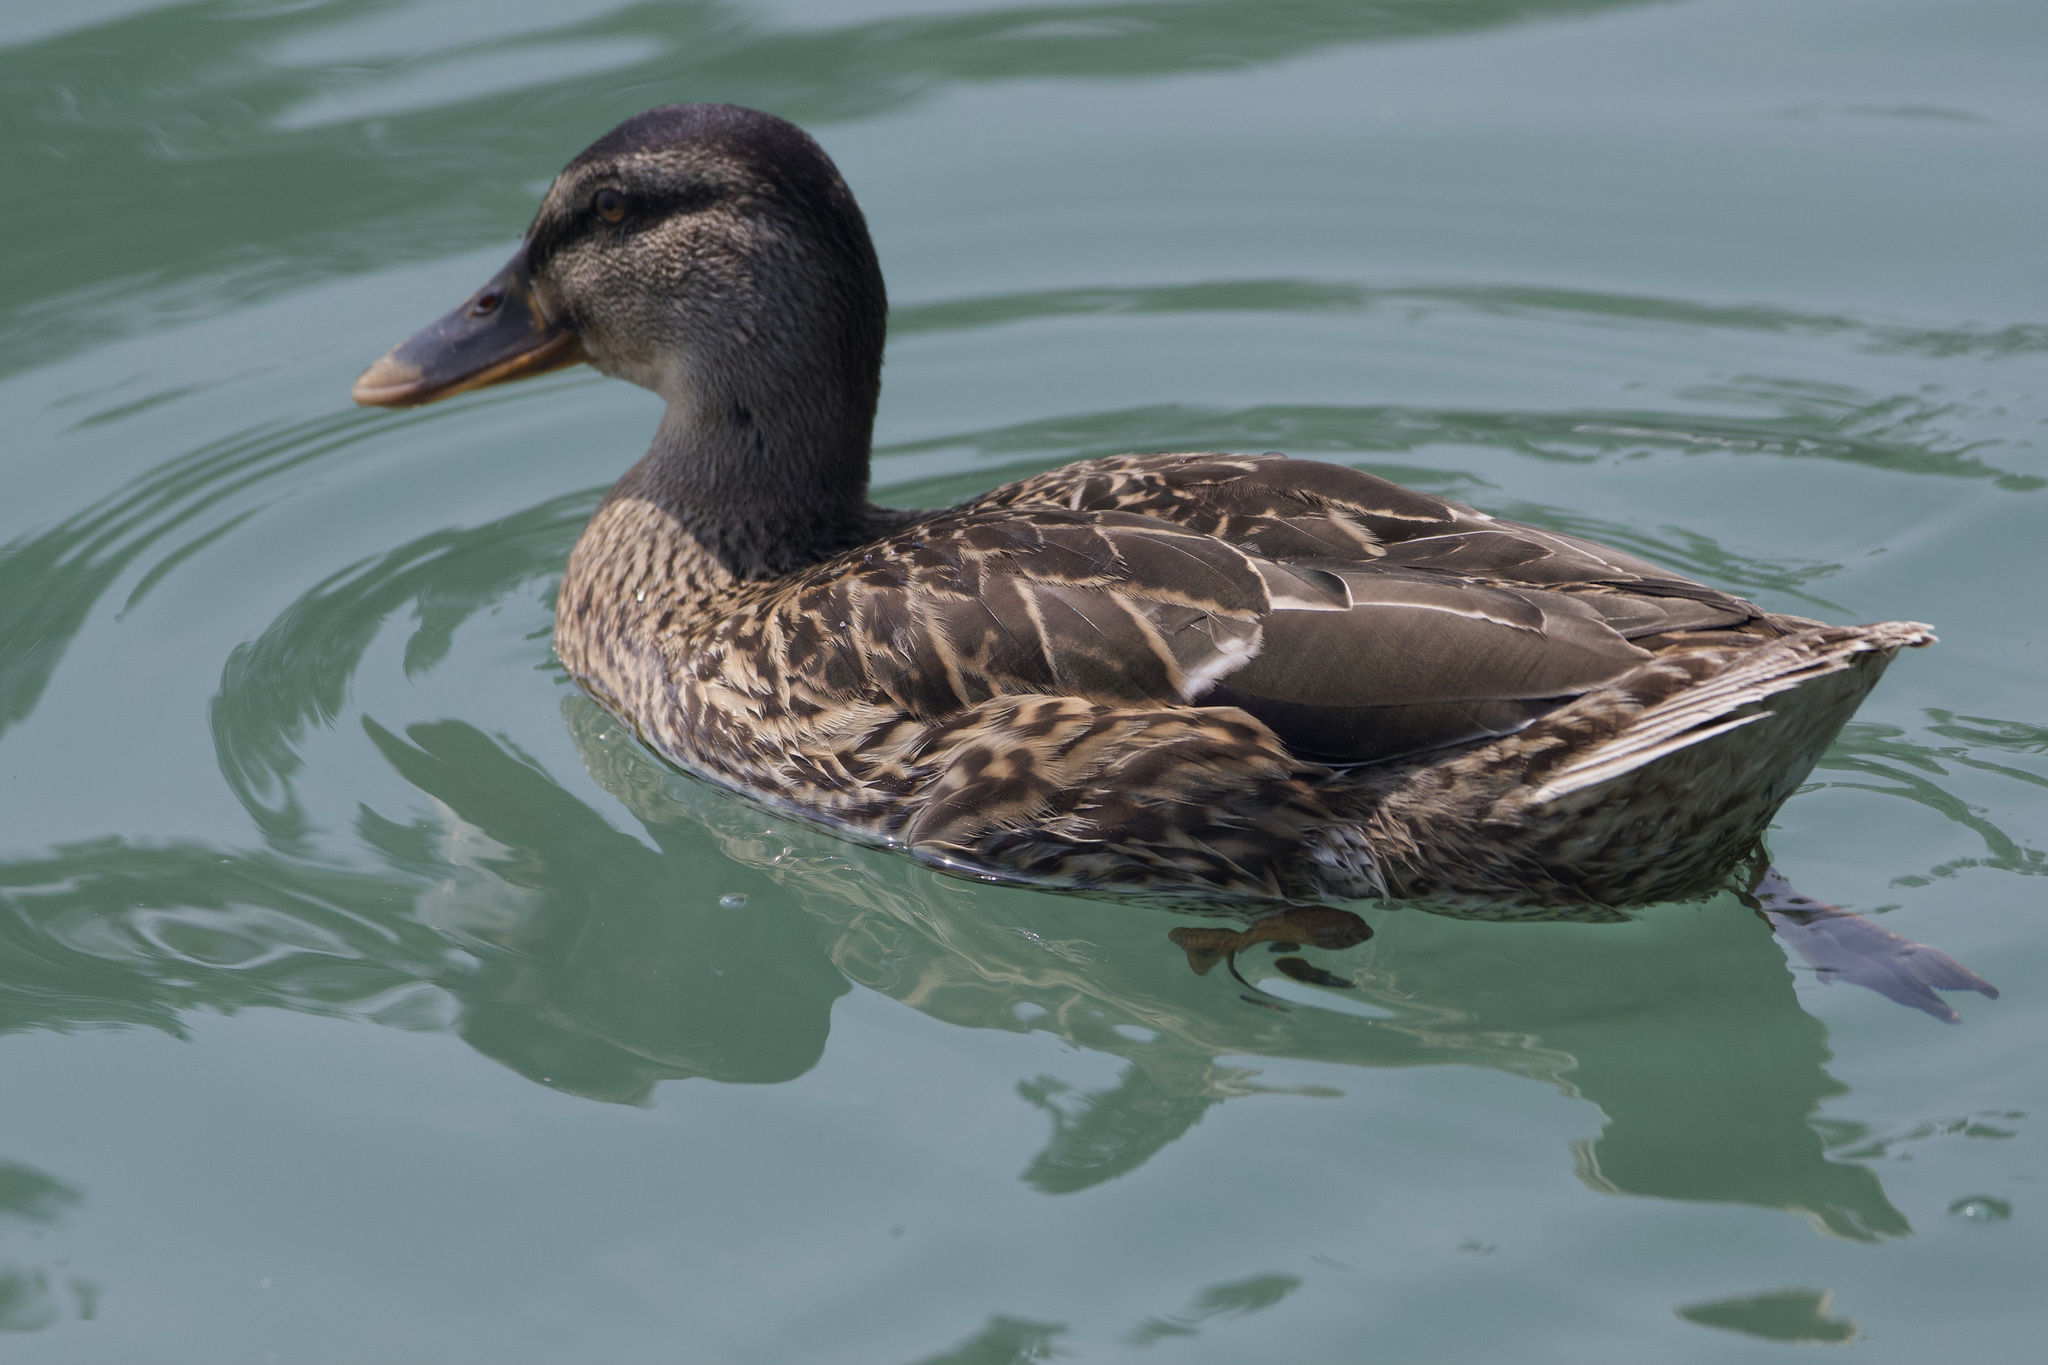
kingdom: Animalia
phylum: Chordata
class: Aves
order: Anseriformes
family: Anatidae
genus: Anas
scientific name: Anas platyrhynchos
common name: Mallard
